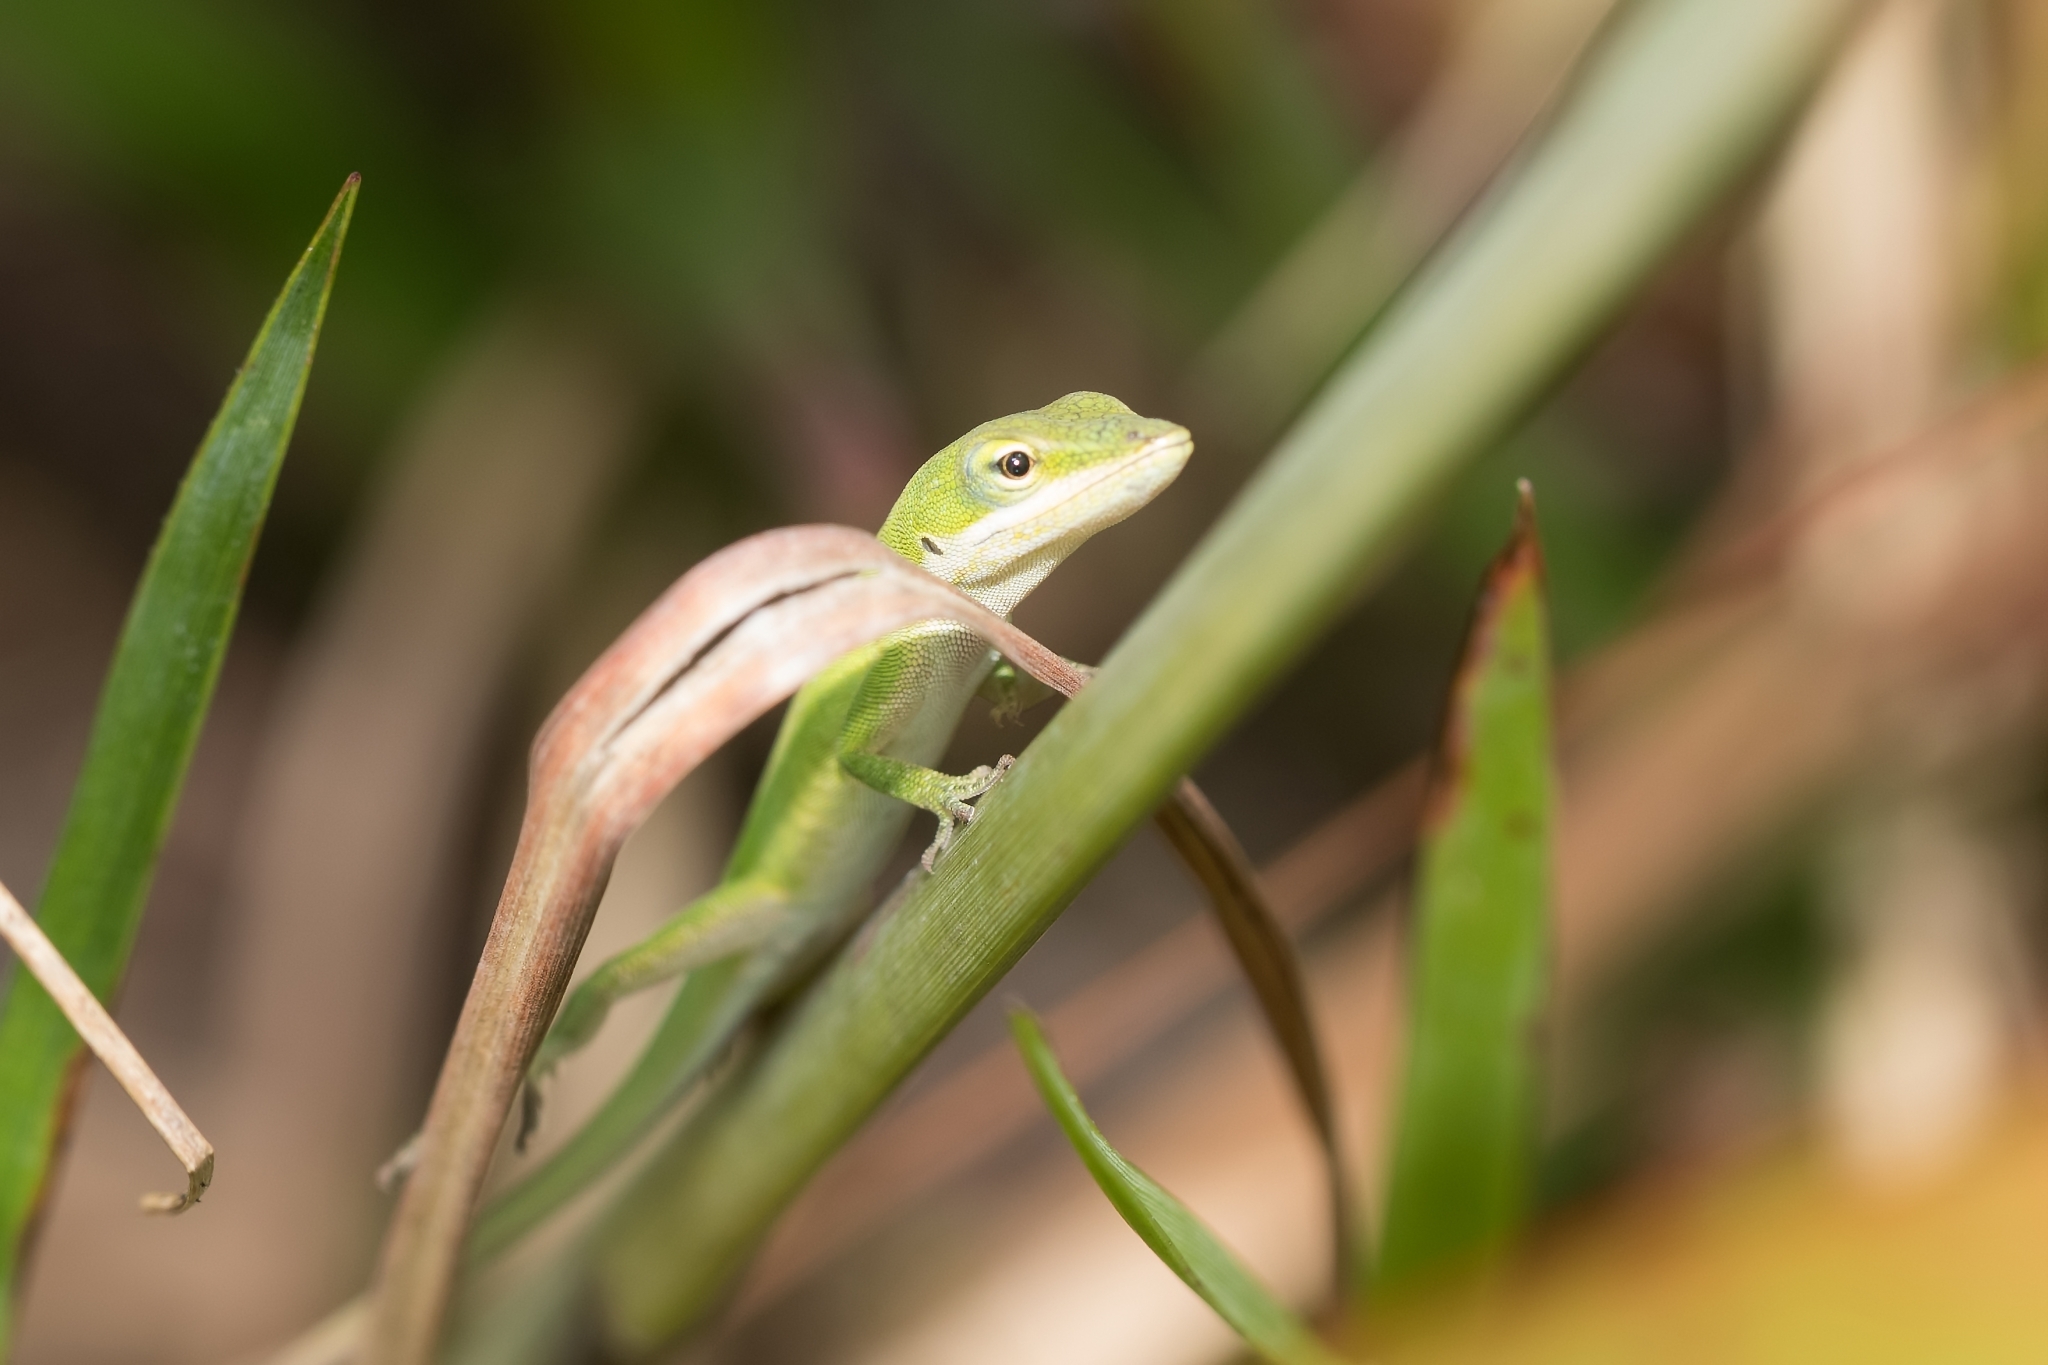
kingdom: Animalia
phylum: Chordata
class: Squamata
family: Dactyloidae
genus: Anolis
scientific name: Anolis carolinensis
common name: Green anole
